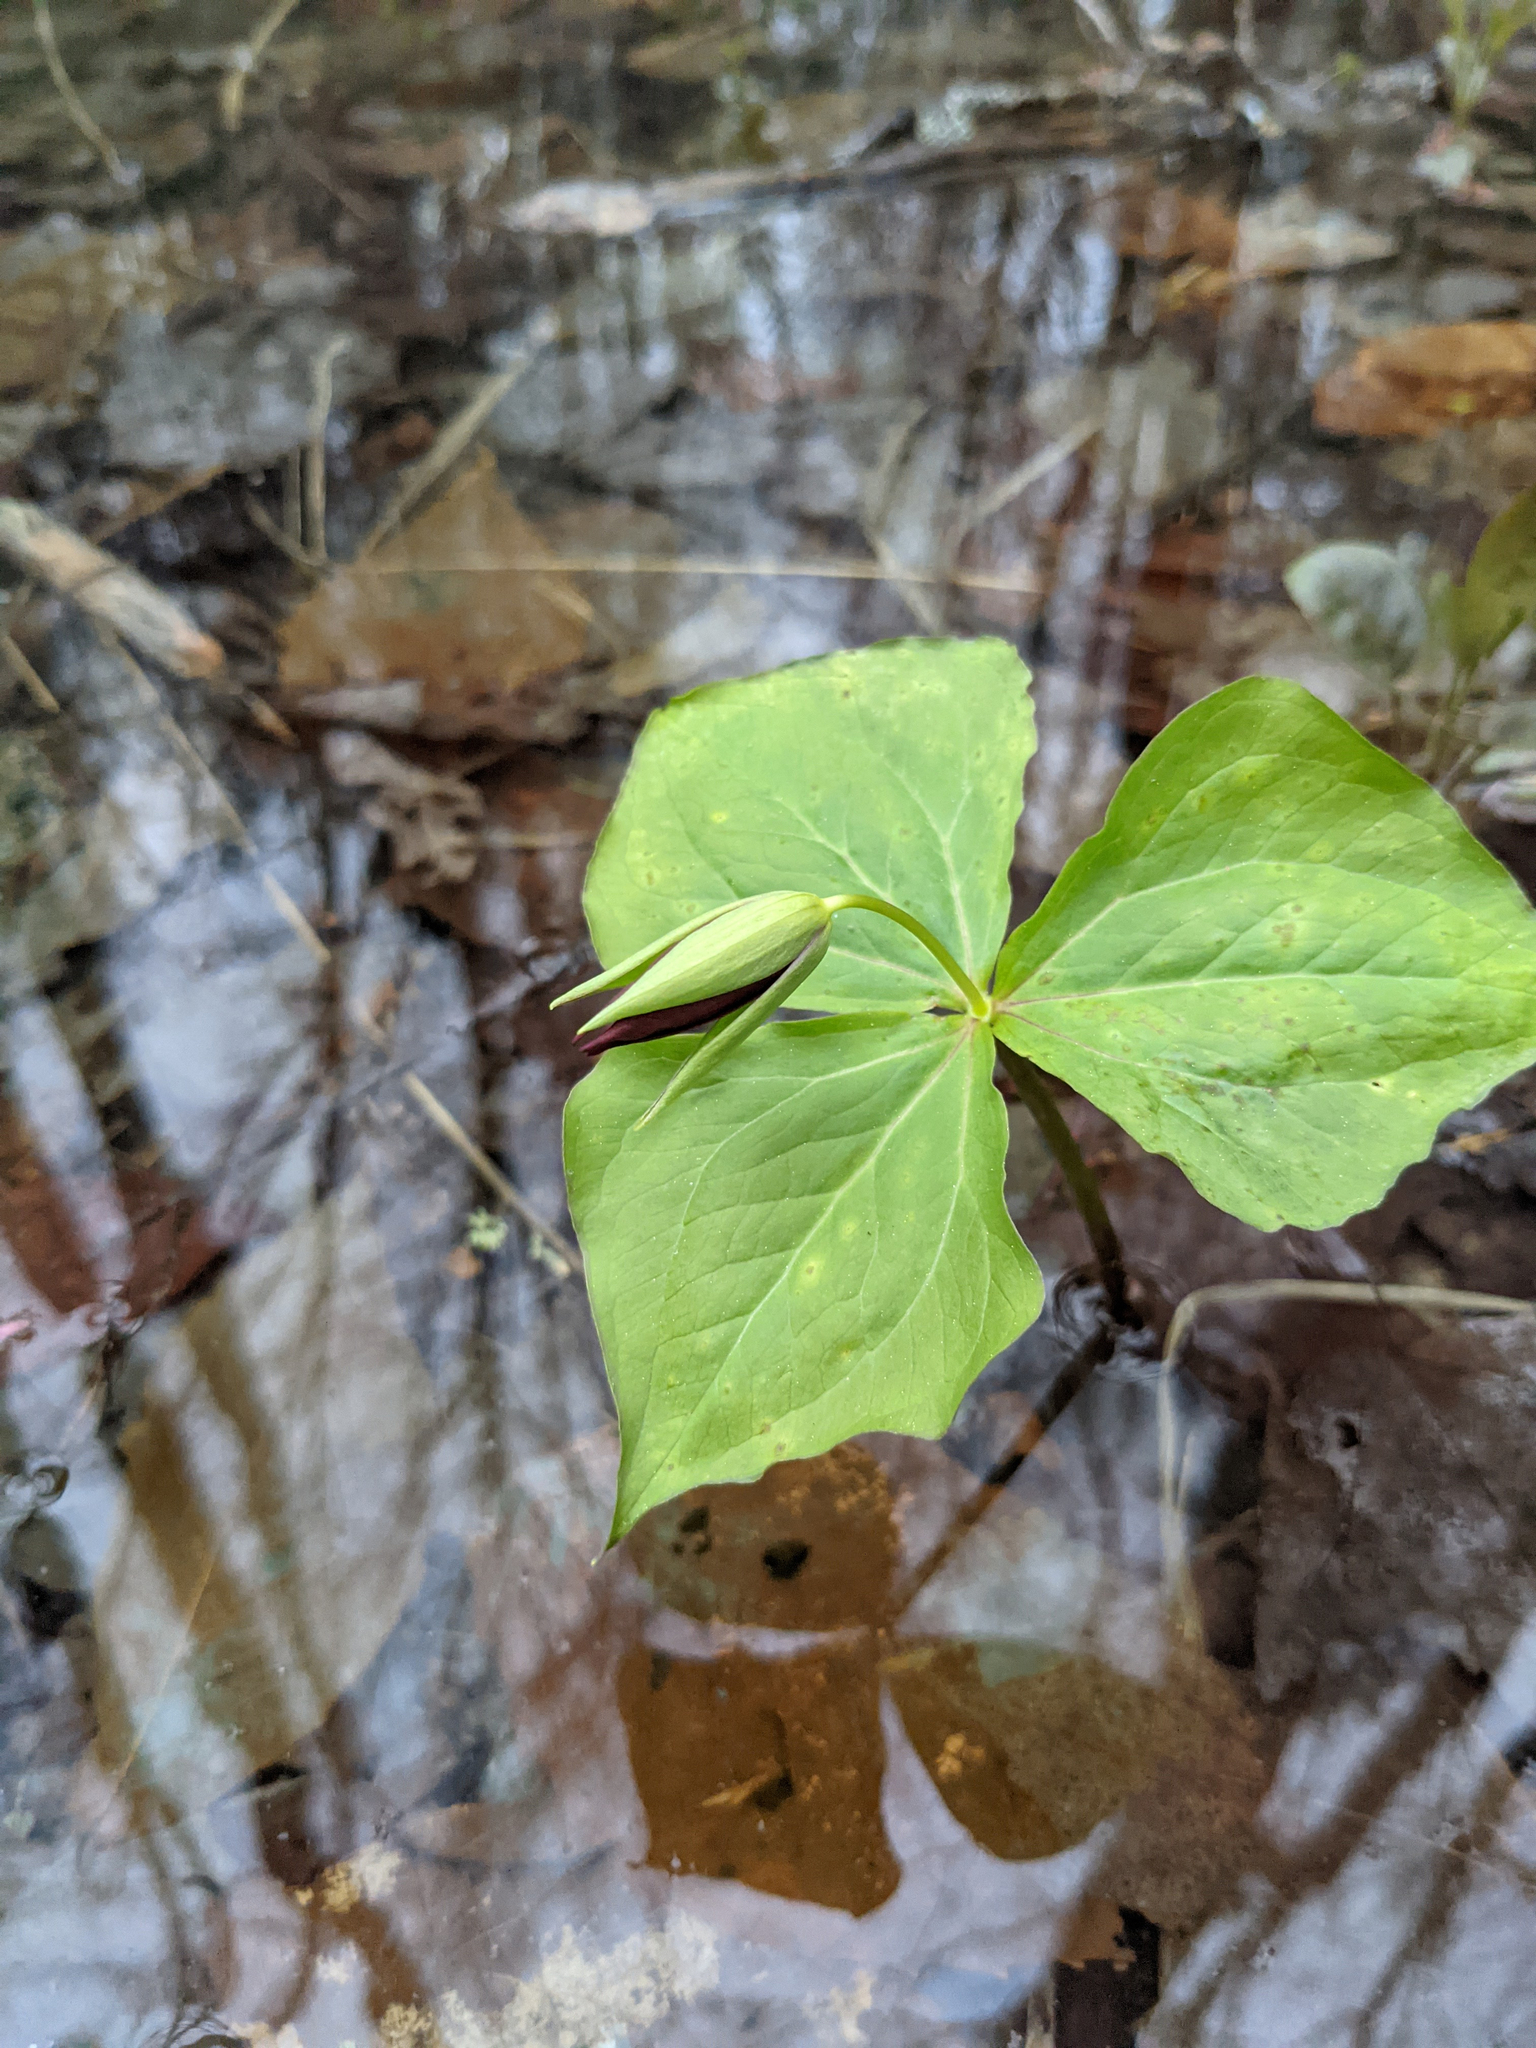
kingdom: Plantae
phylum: Tracheophyta
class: Liliopsida
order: Liliales
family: Melanthiaceae
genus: Trillium
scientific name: Trillium erectum
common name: Purple trillium
